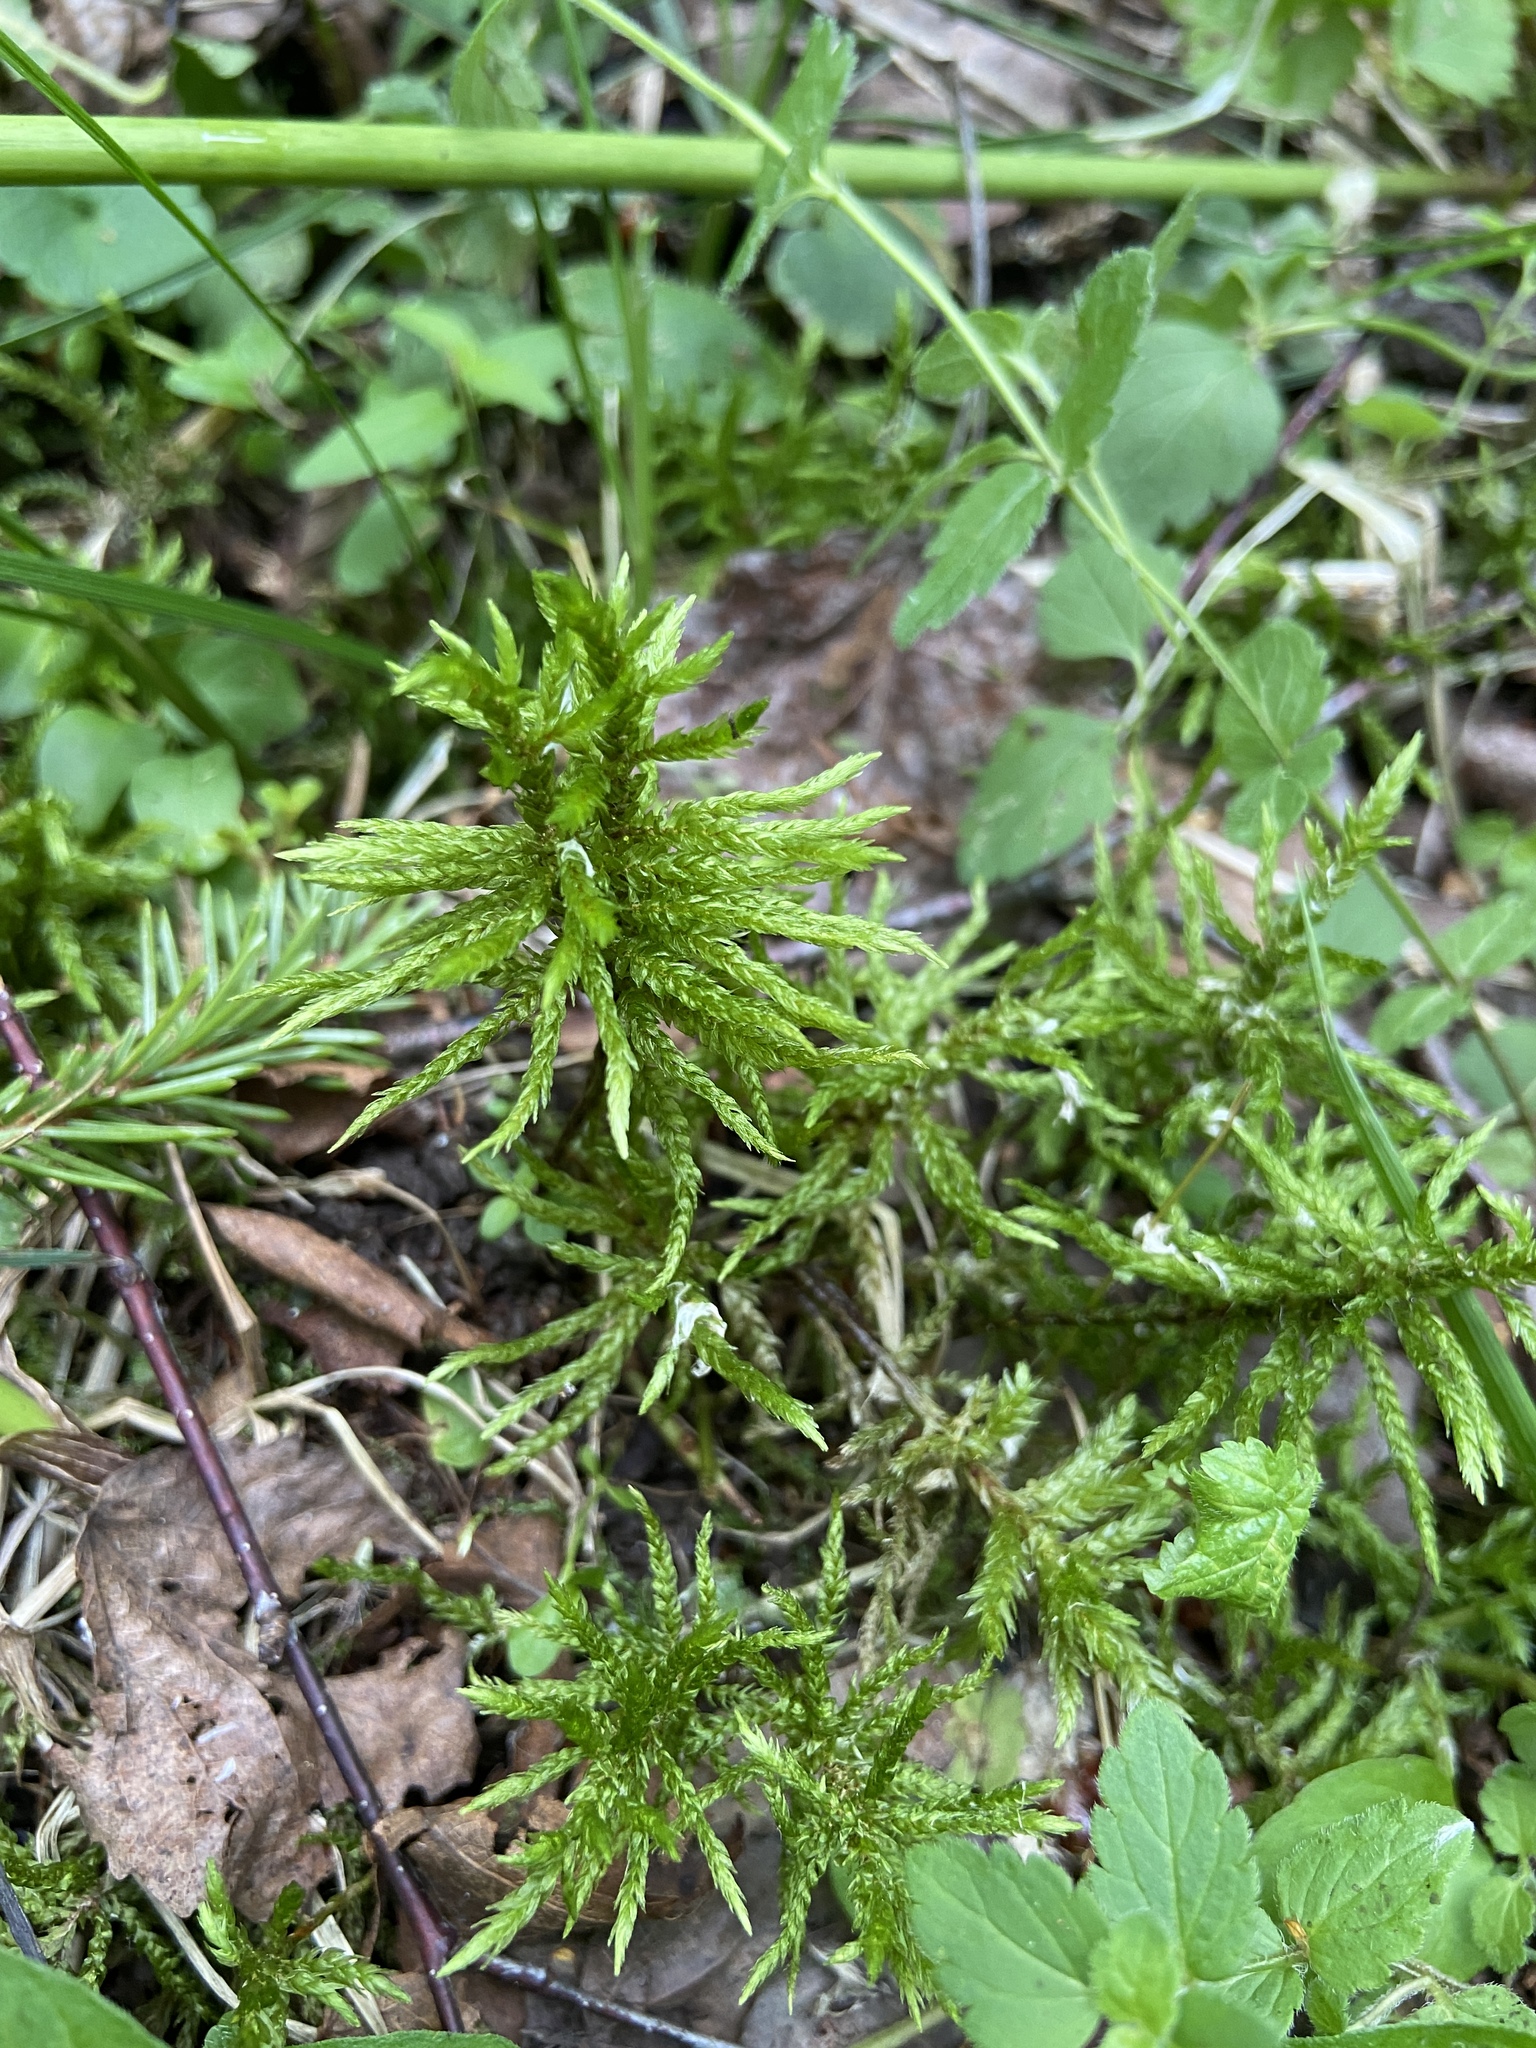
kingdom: Plantae
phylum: Bryophyta
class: Bryopsida
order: Hypnales
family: Climaciaceae
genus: Climacium
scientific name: Climacium dendroides
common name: Northern tree moss
